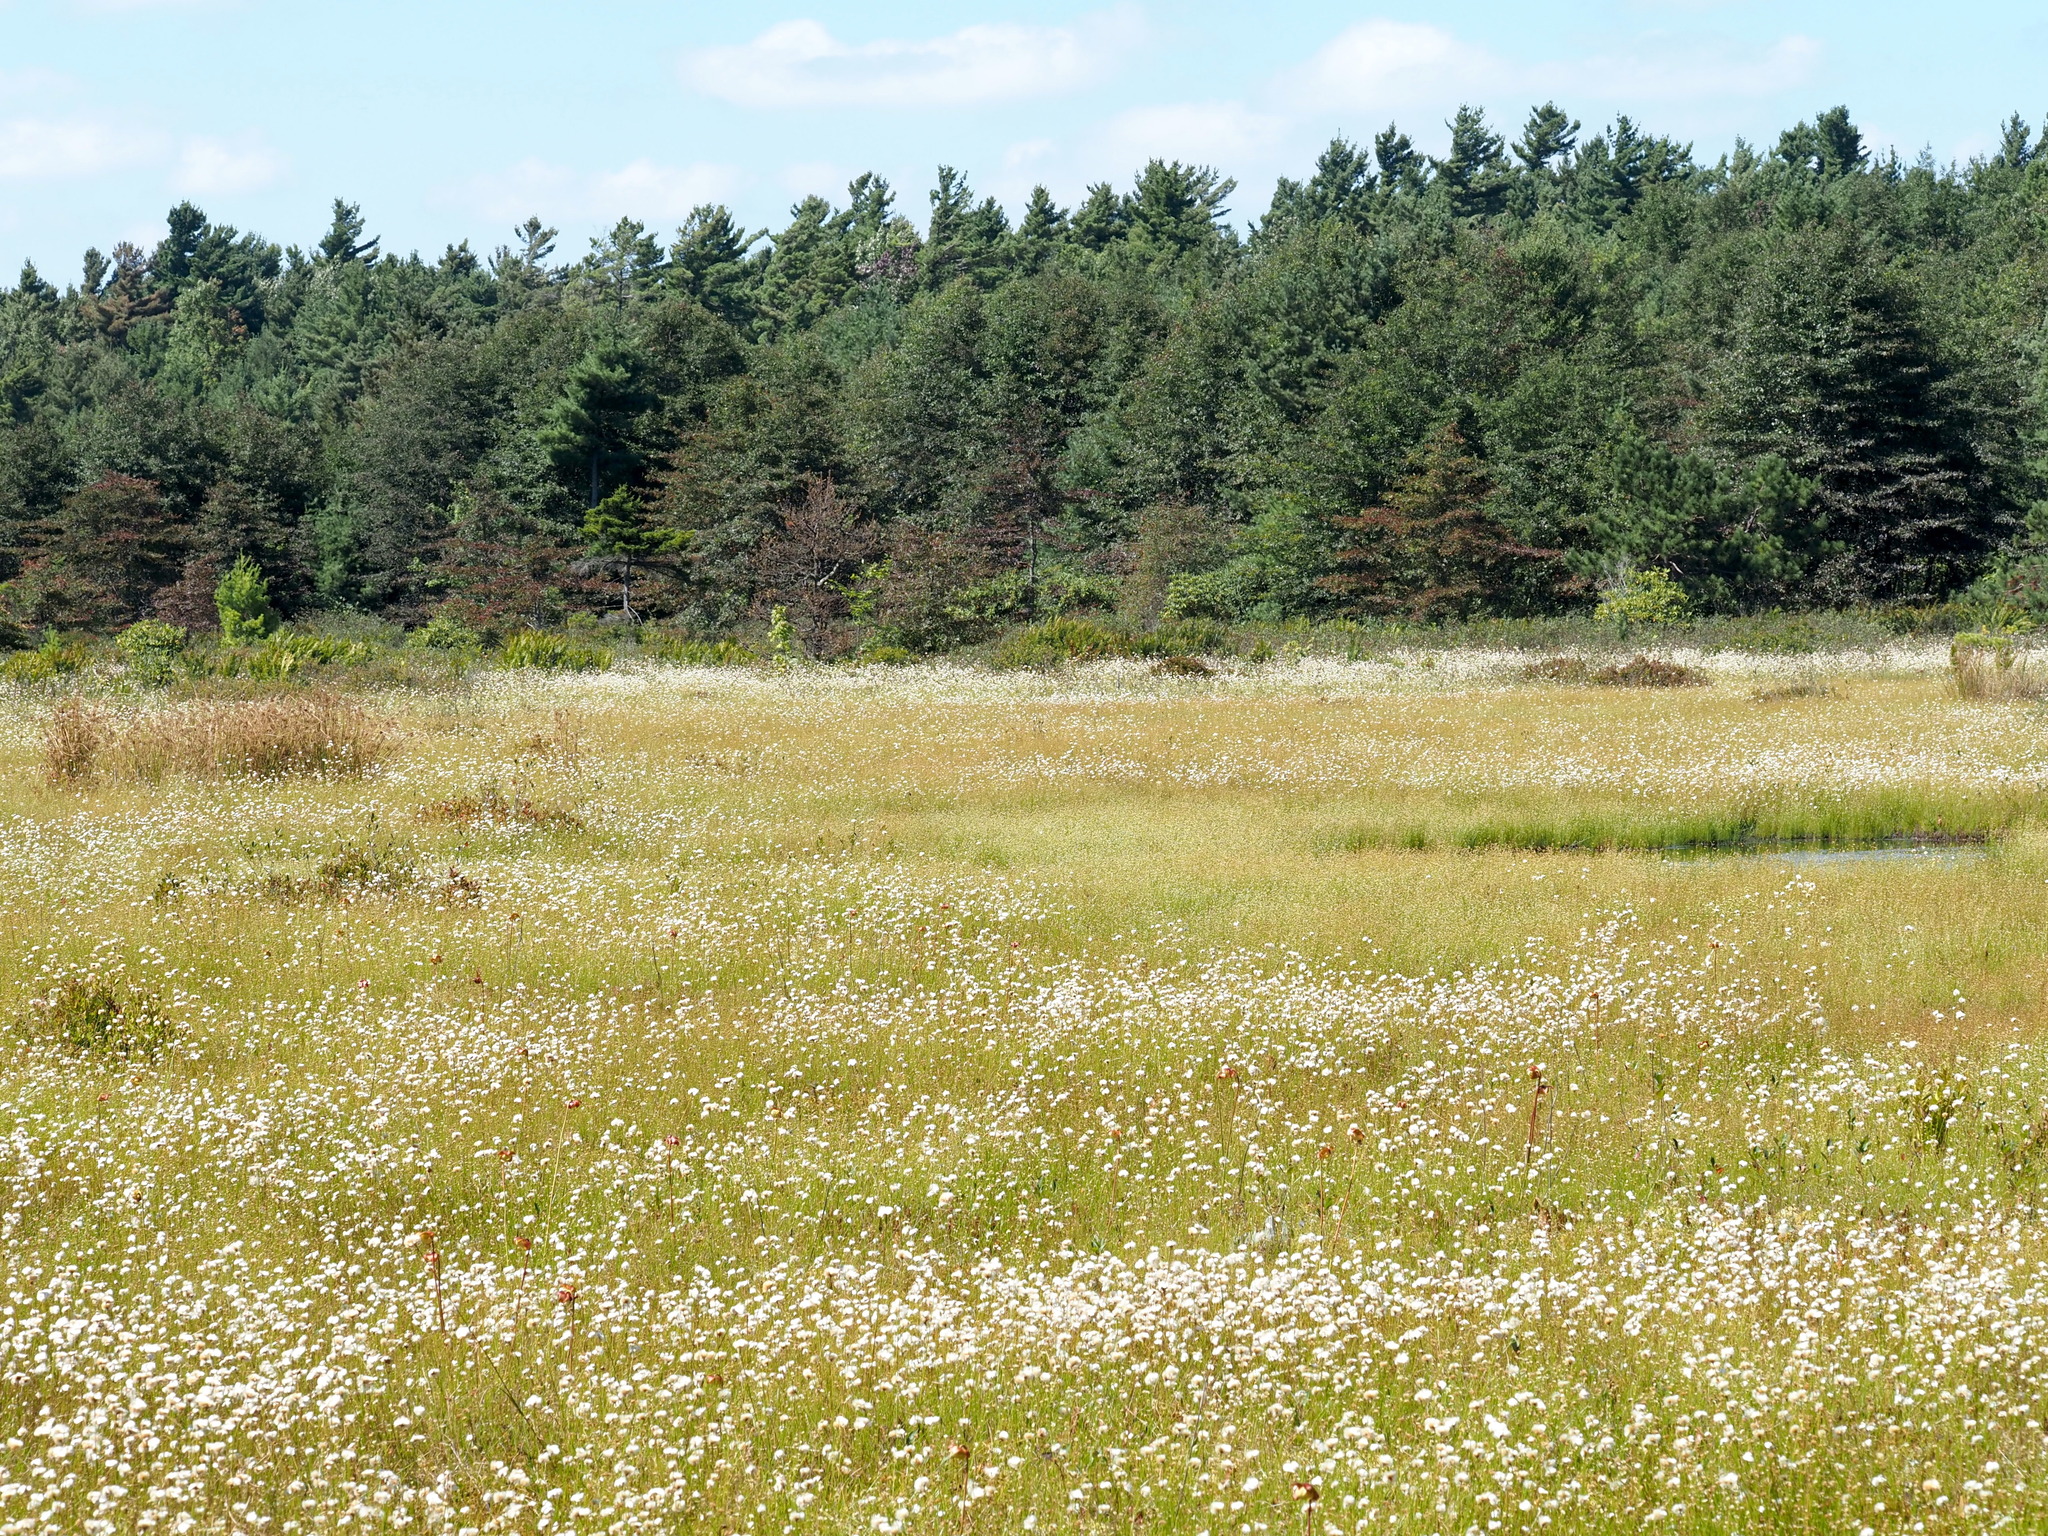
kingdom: Plantae
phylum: Tracheophyta
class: Liliopsida
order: Poales
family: Cyperaceae
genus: Eriophorum
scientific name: Eriophorum virginicum
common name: Tawny cottongrass
